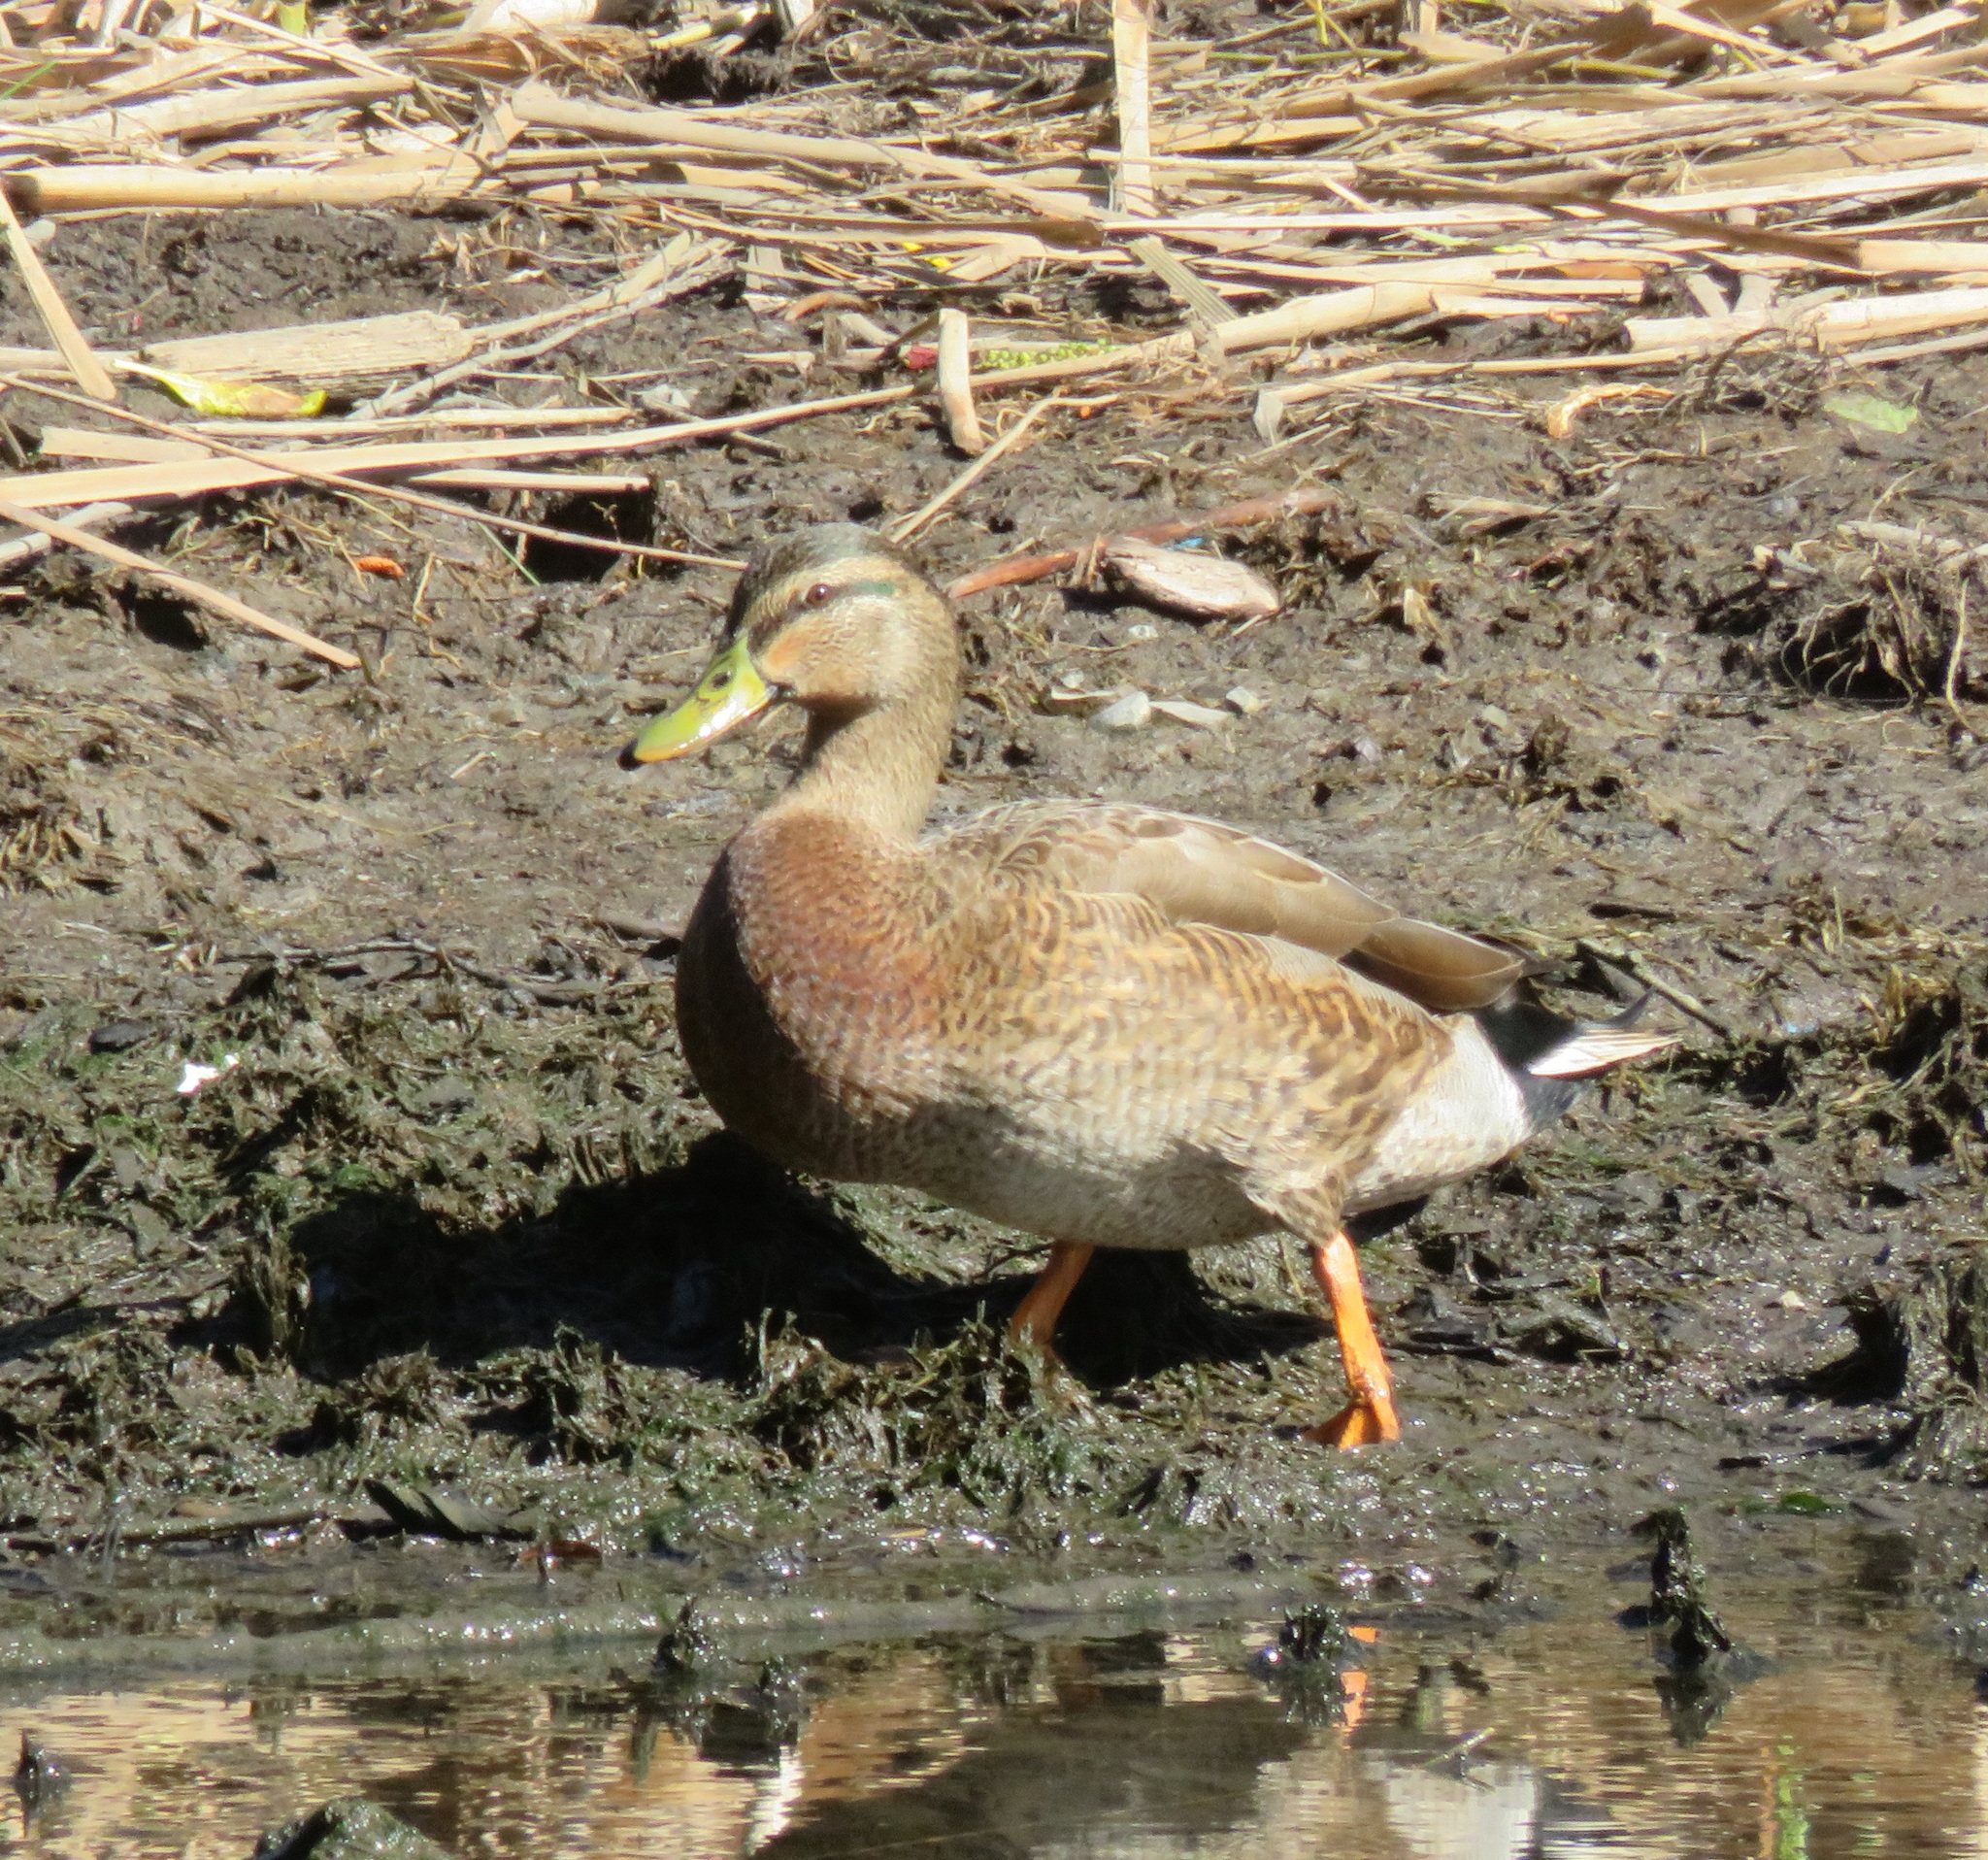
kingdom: Animalia
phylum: Chordata
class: Aves
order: Anseriformes
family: Anatidae
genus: Anas
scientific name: Anas platyrhynchos
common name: Mallard
